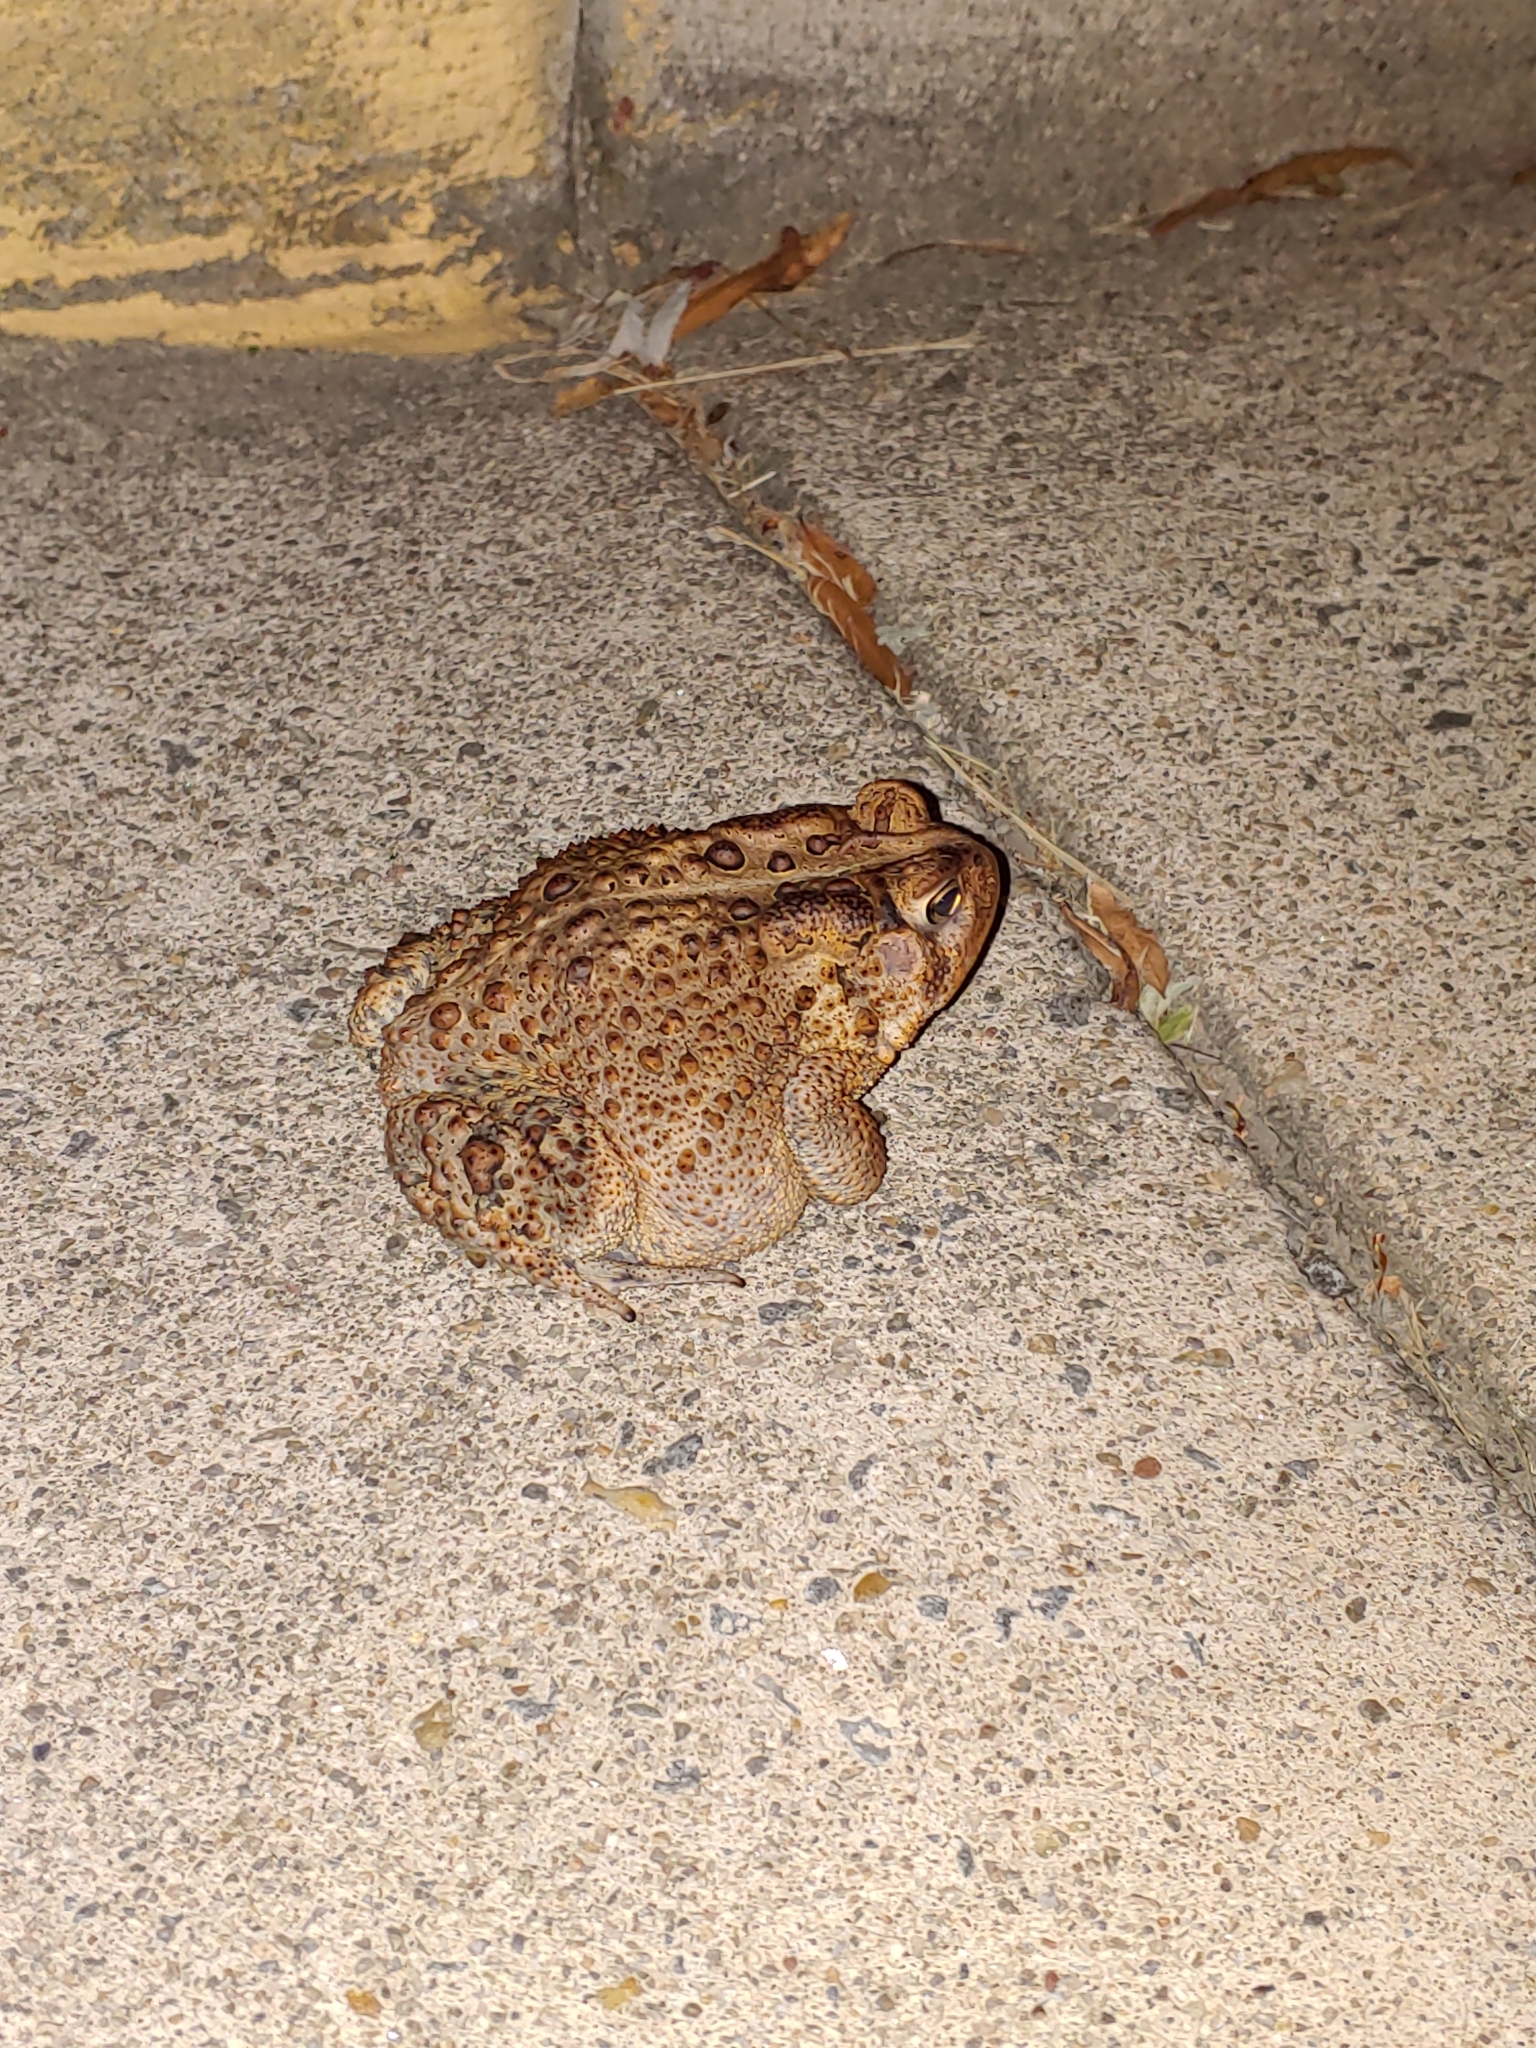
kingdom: Animalia
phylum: Chordata
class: Amphibia
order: Anura
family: Bufonidae
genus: Anaxyrus
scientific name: Anaxyrus americanus
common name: American toad
